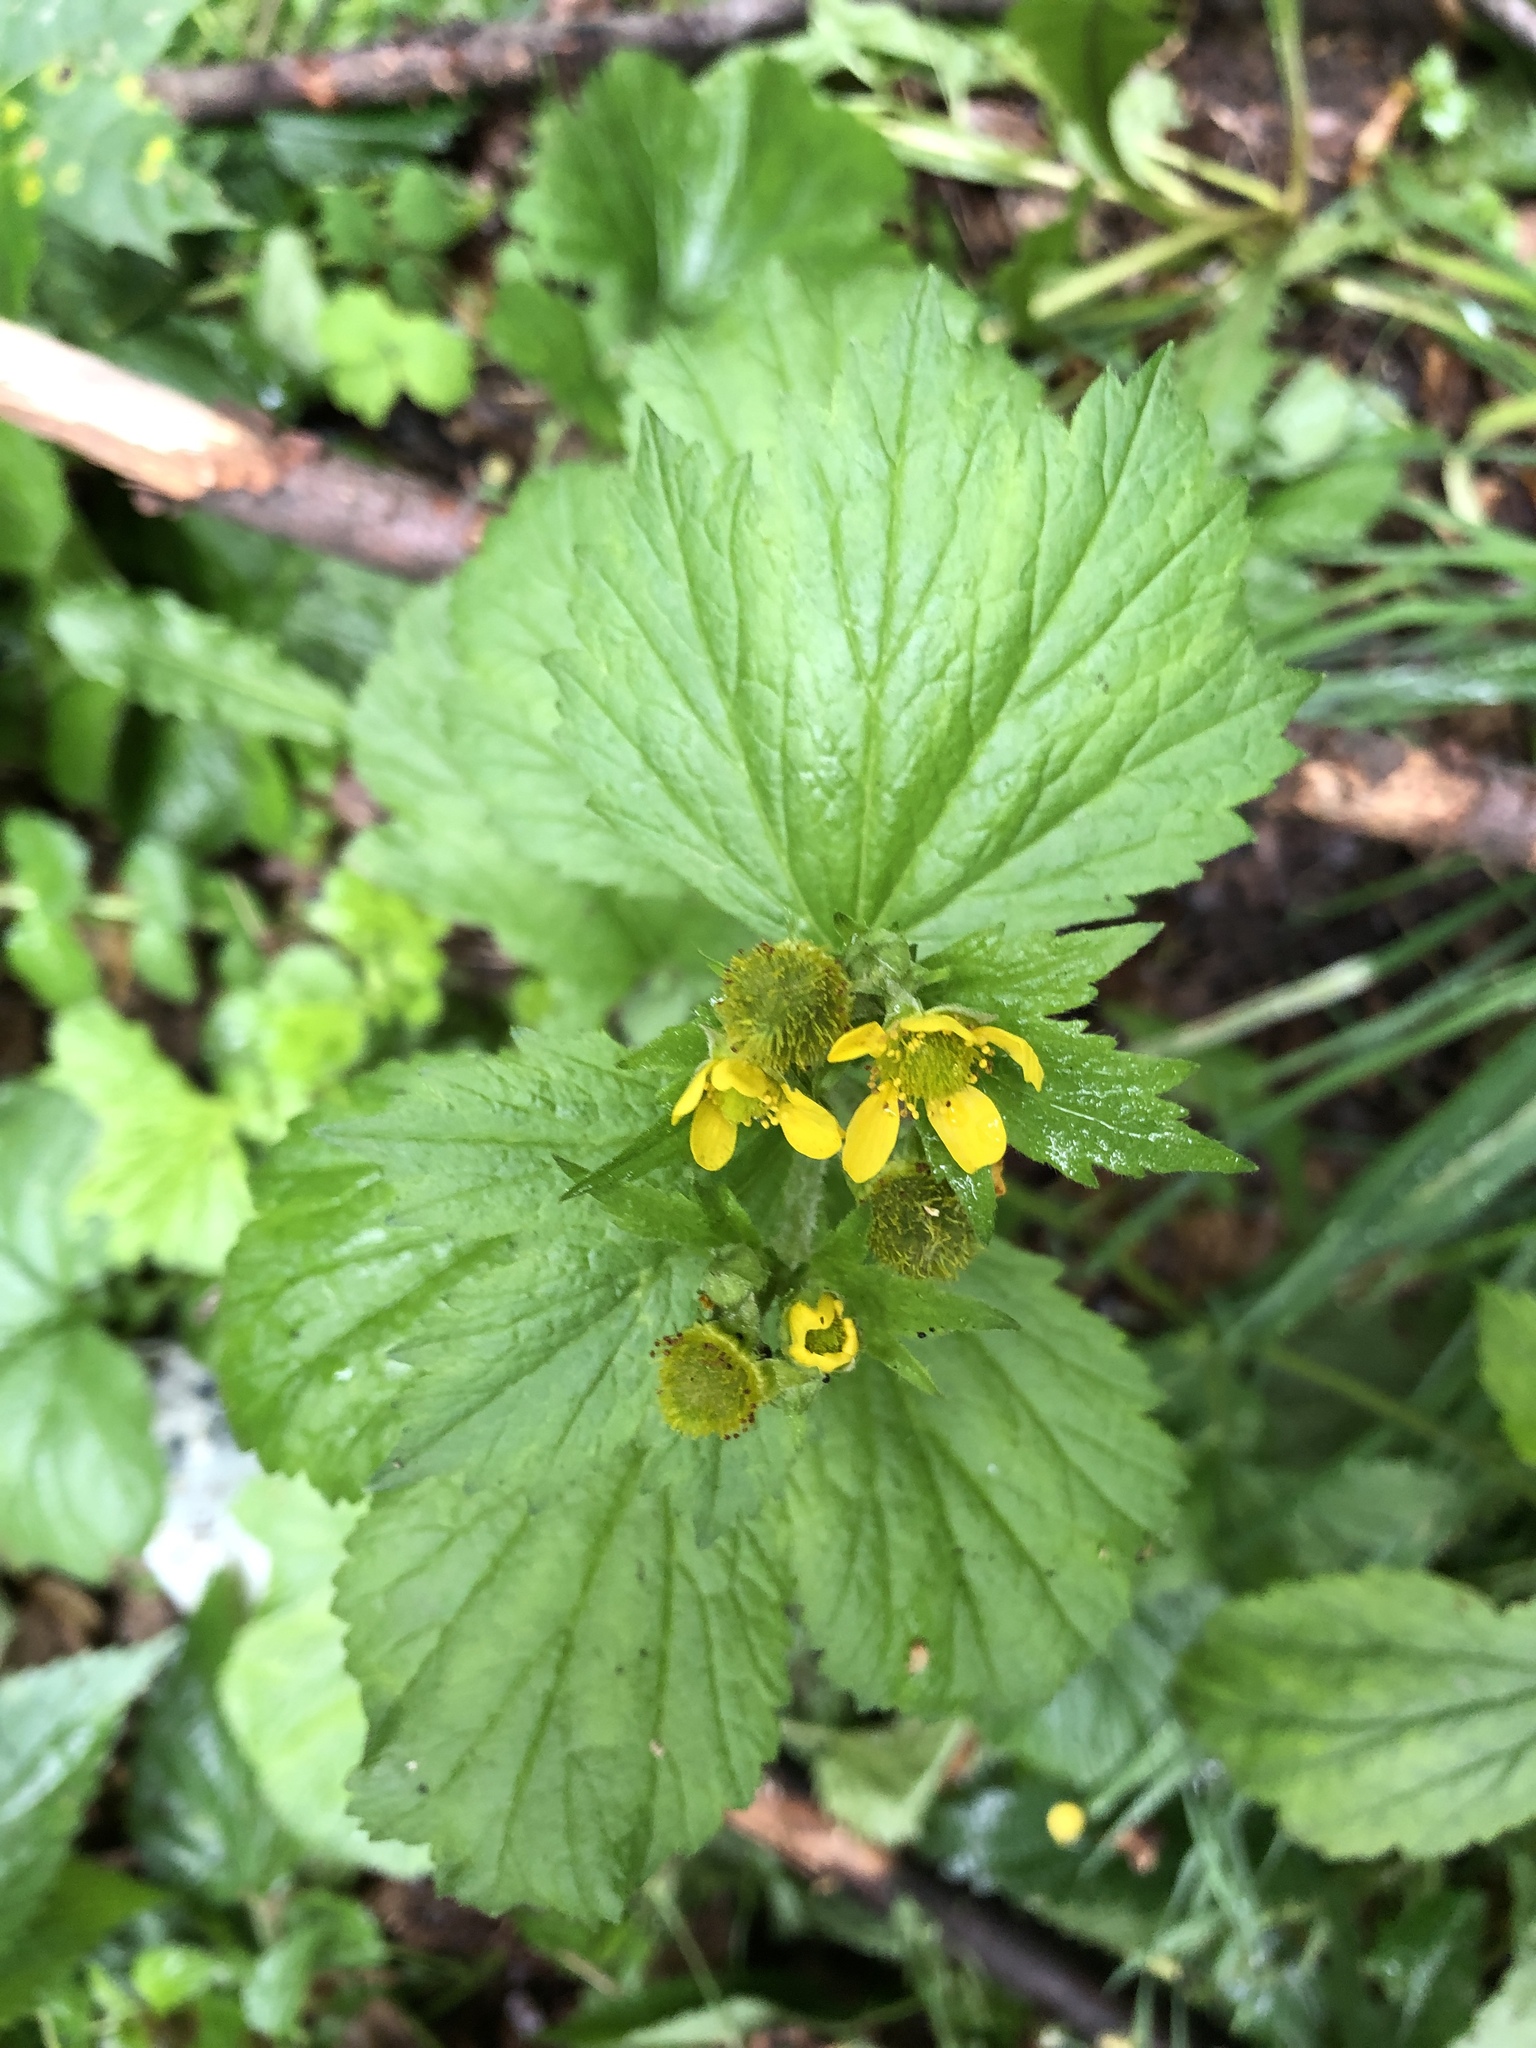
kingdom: Plantae
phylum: Tracheophyta
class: Magnoliopsida
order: Rosales
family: Rosaceae
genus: Geum
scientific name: Geum macrophyllum
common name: Large-leaved avens
